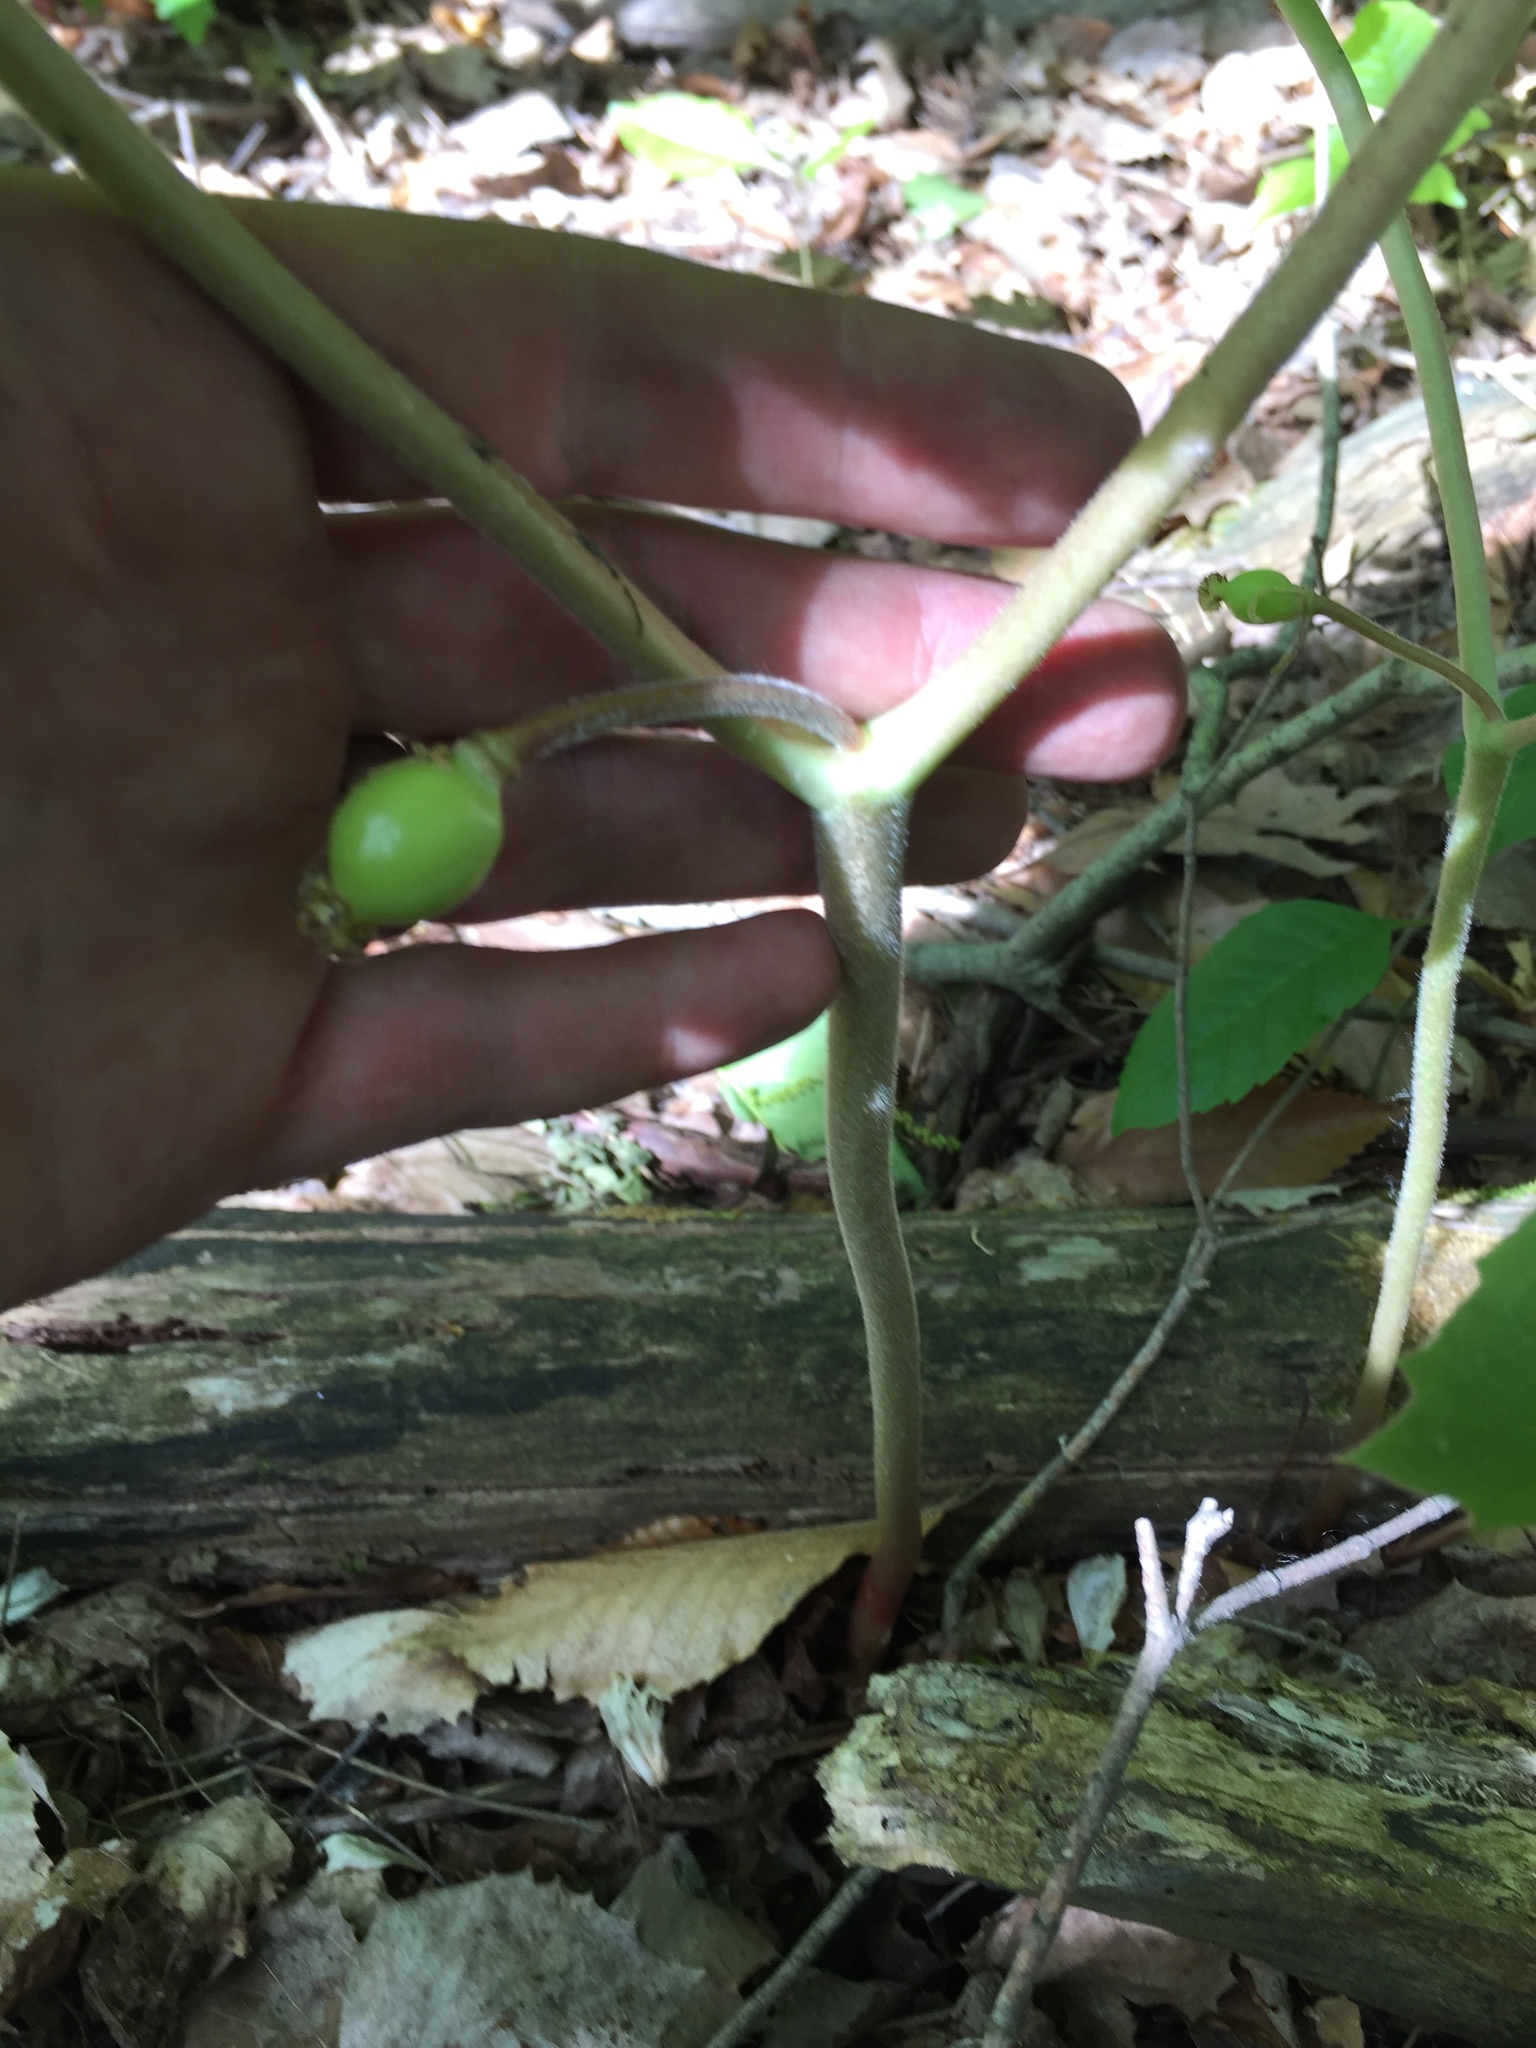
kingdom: Plantae
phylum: Tracheophyta
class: Magnoliopsida
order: Ranunculales
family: Berberidaceae
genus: Podophyllum
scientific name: Podophyllum peltatum
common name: Wild mandrake
